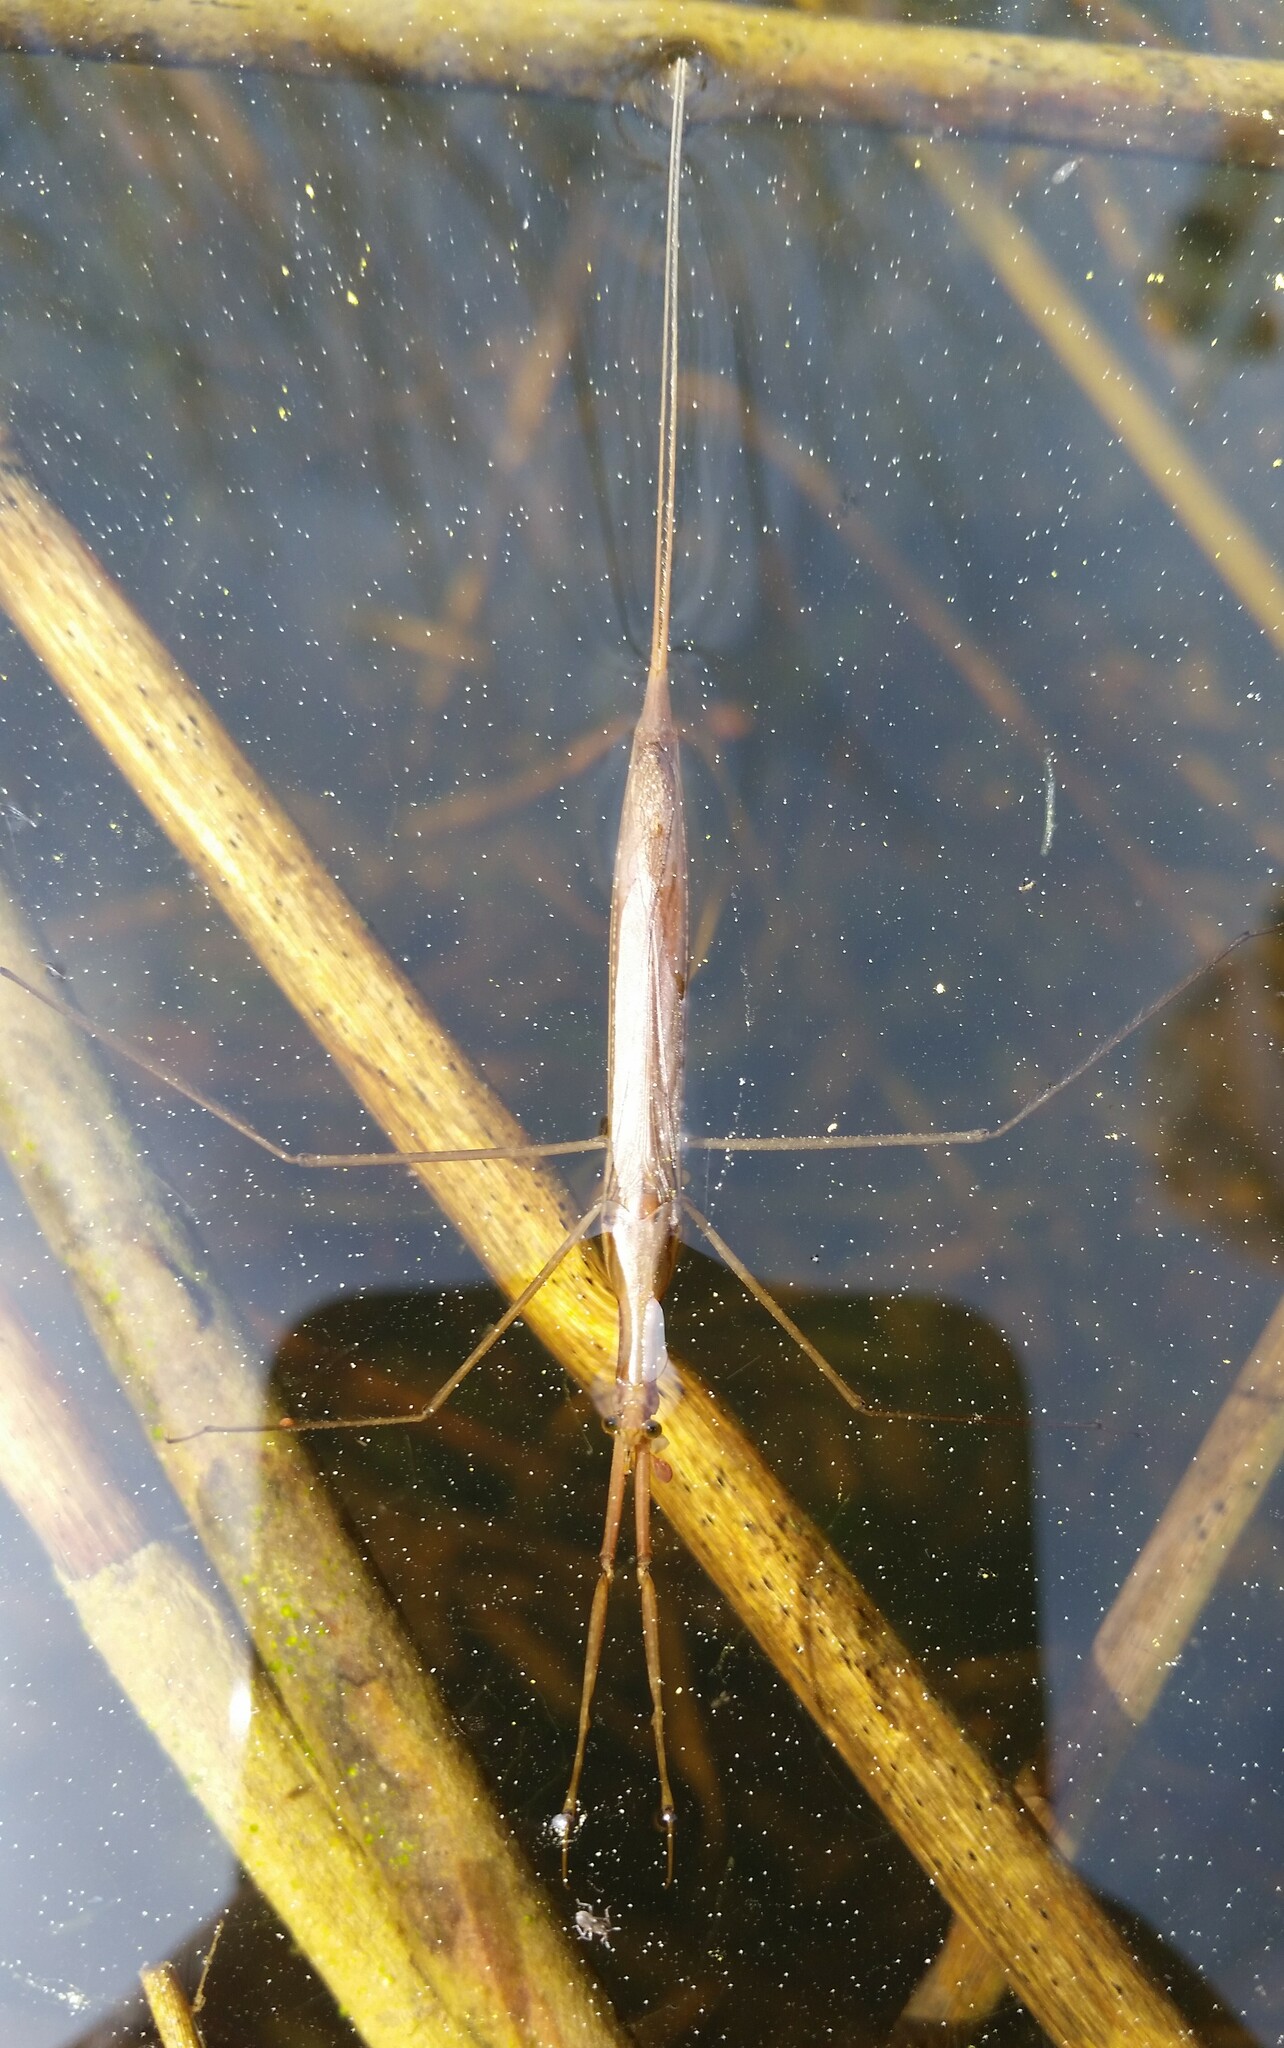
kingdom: Animalia
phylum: Arthropoda
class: Insecta
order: Hemiptera
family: Nepidae
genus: Ranatra
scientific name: Ranatra linearis
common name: Water stick insect
